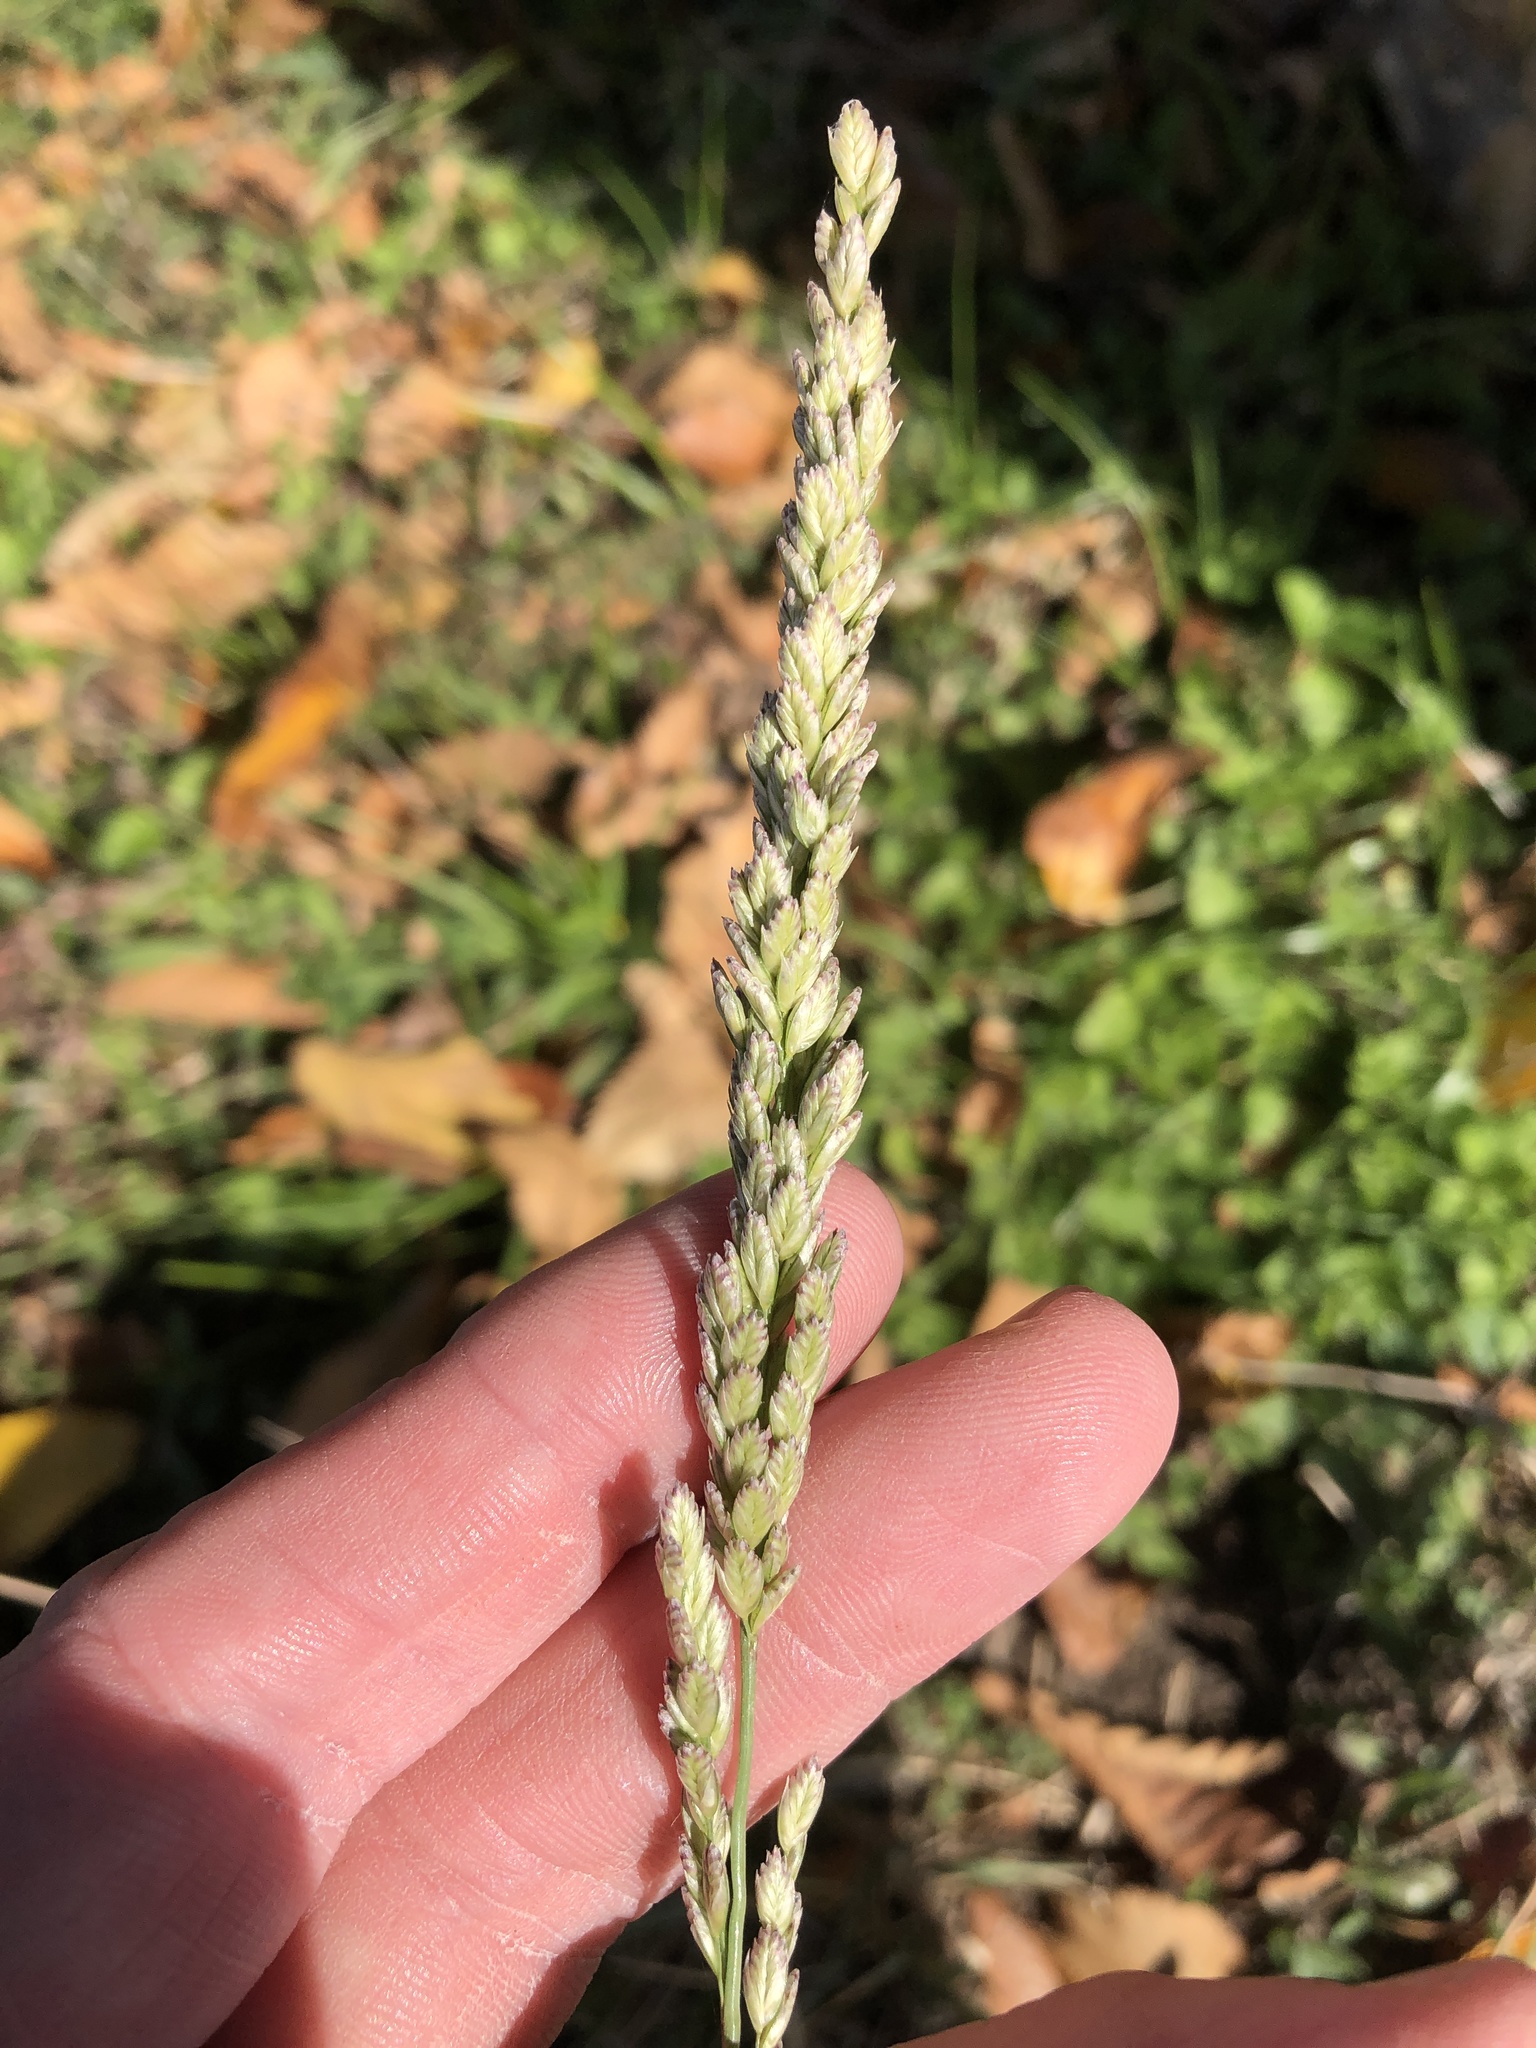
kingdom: Plantae
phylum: Tracheophyta
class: Liliopsida
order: Poales
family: Poaceae
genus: Tridens
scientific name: Tridens albescens
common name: White tridens
